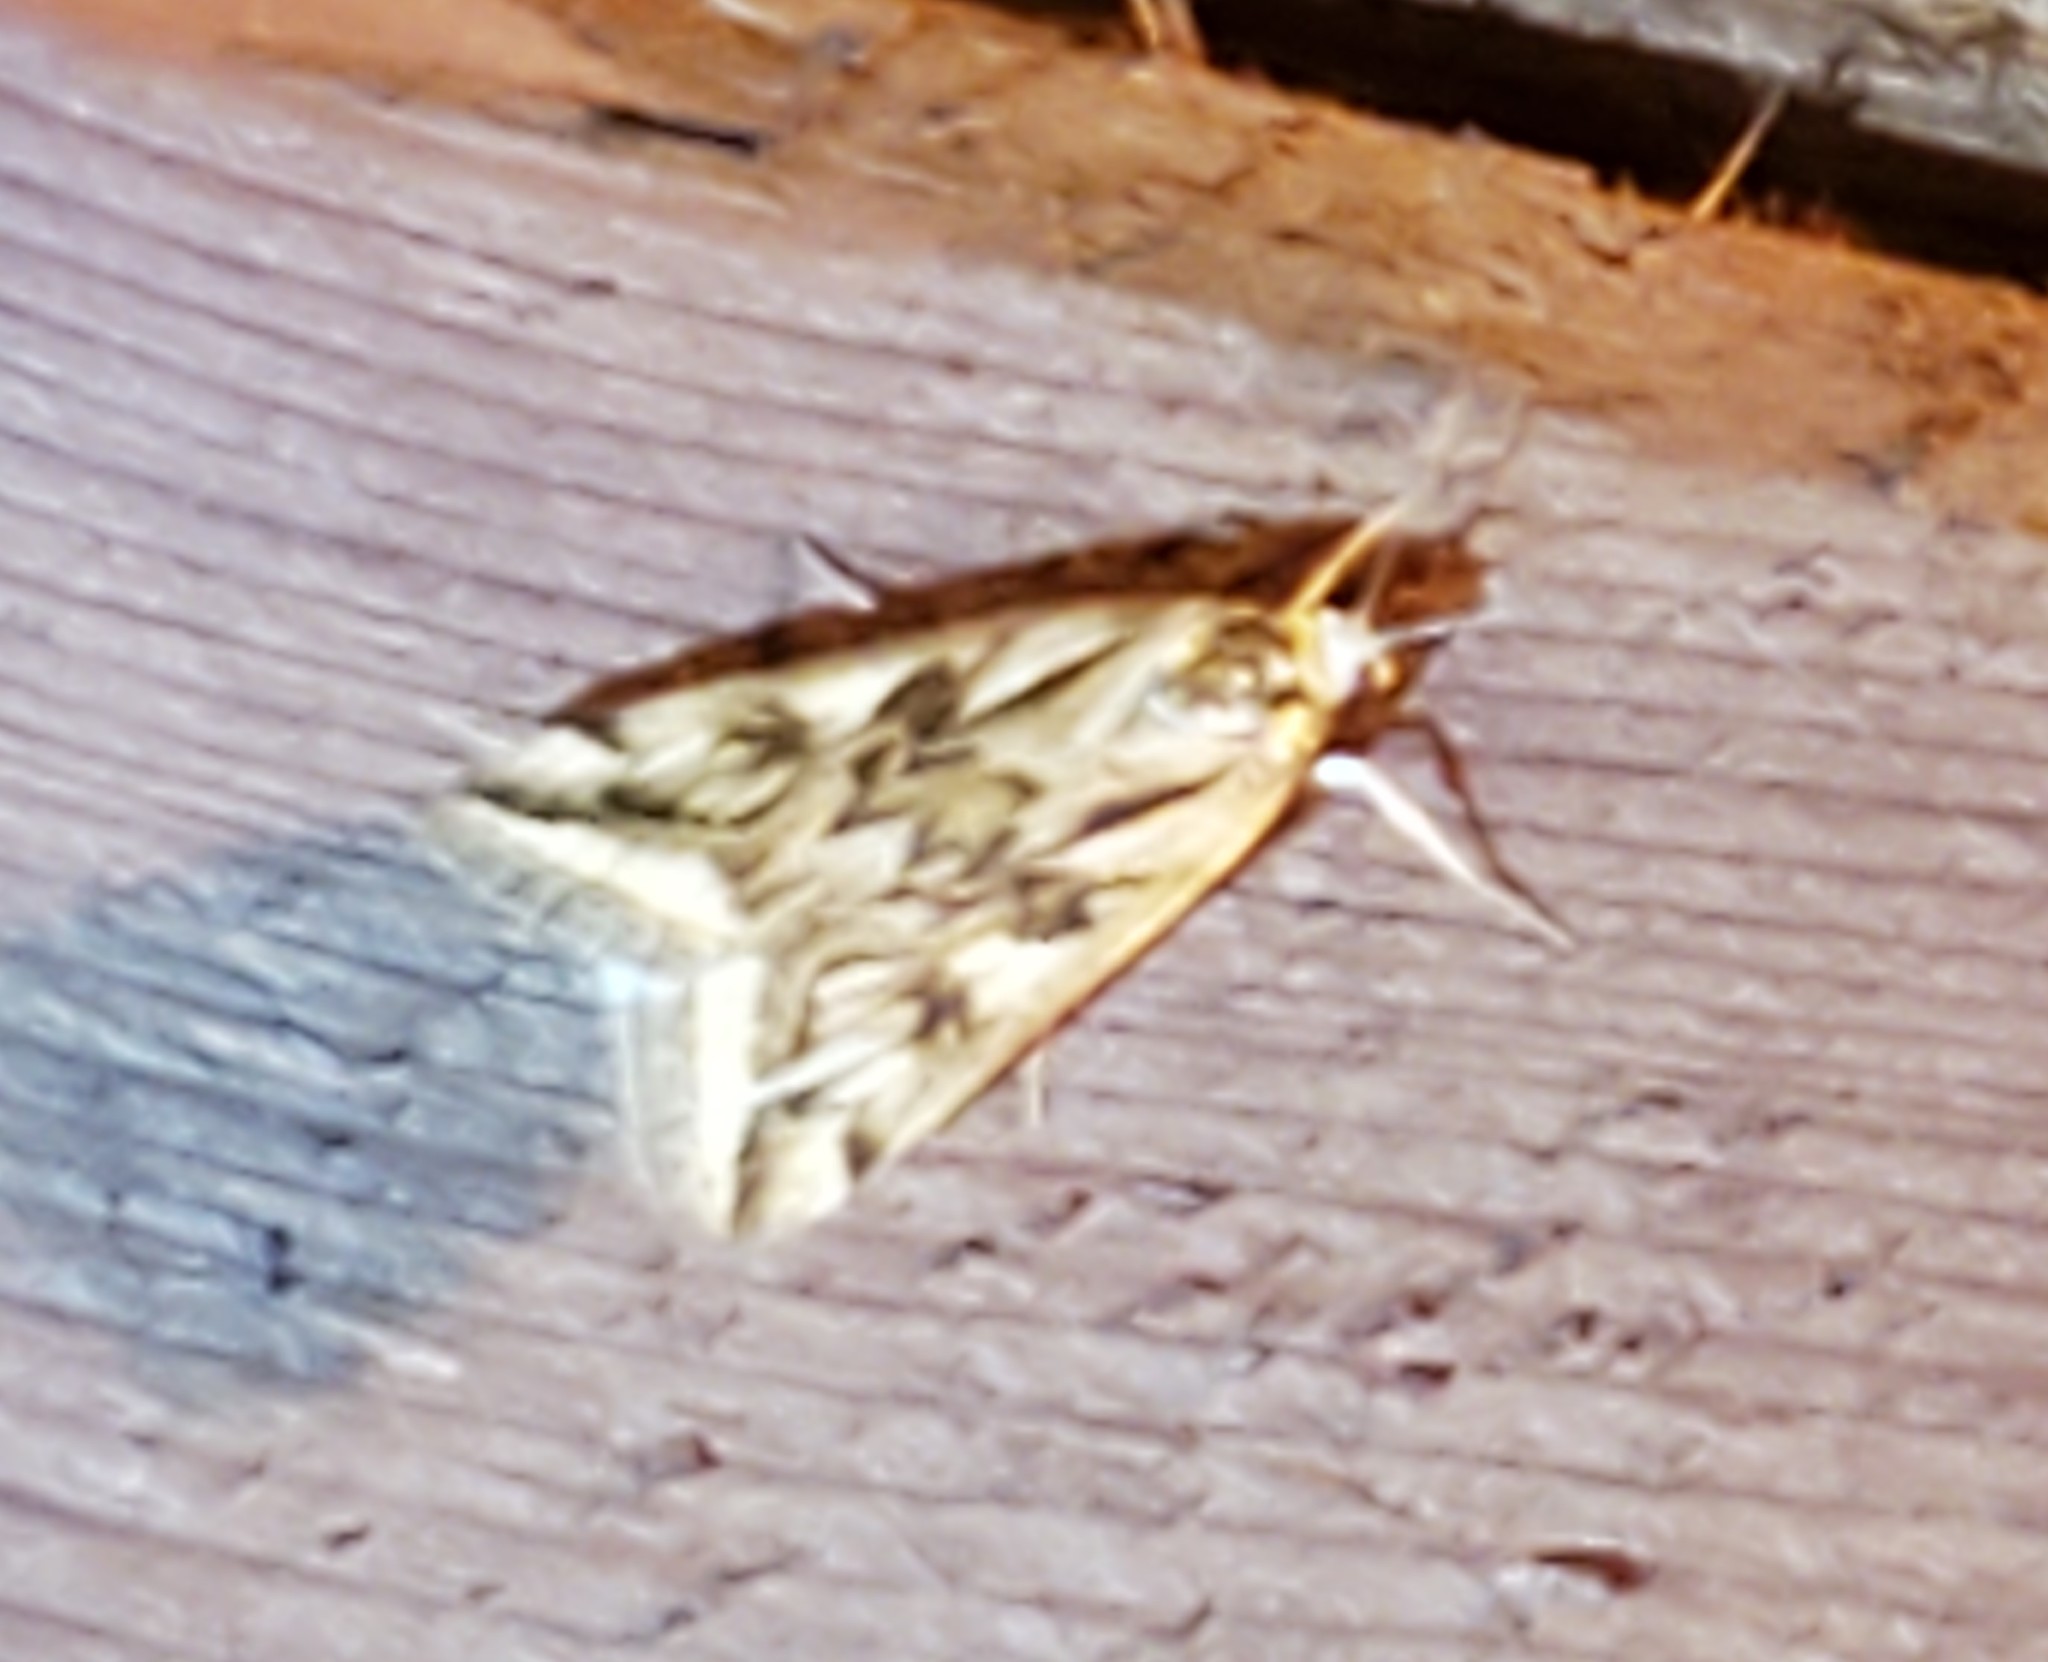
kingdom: Animalia
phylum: Arthropoda
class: Insecta
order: Lepidoptera
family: Crambidae
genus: Loxostege
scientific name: Loxostege cereralis
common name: Alfalfa webworm moth
